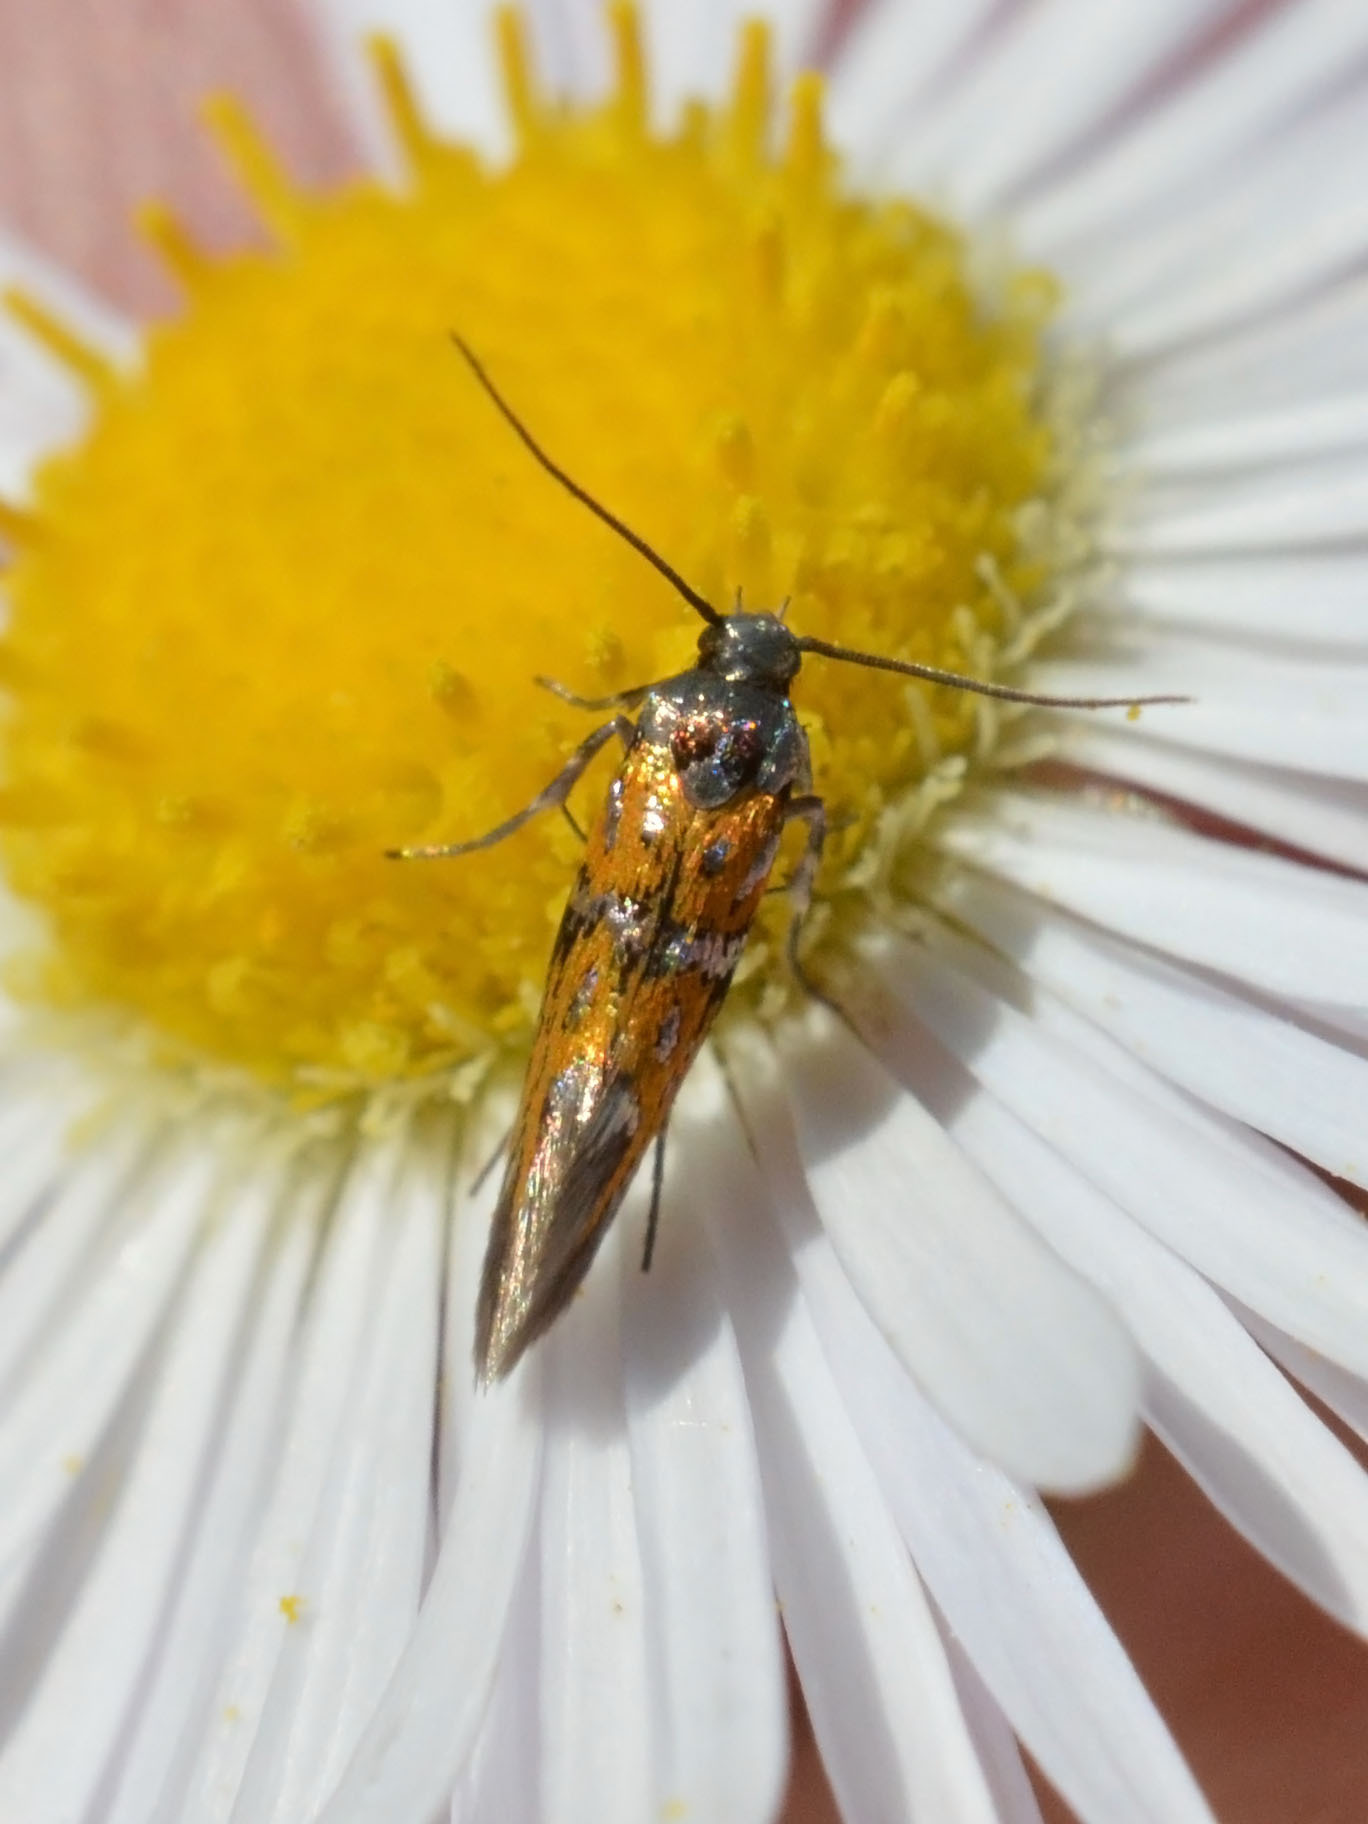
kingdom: Animalia
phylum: Arthropoda
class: Insecta
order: Lepidoptera
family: Gelechiidae
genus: Chrysoesthia
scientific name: Chrysoesthia drurella
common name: Flame neb
